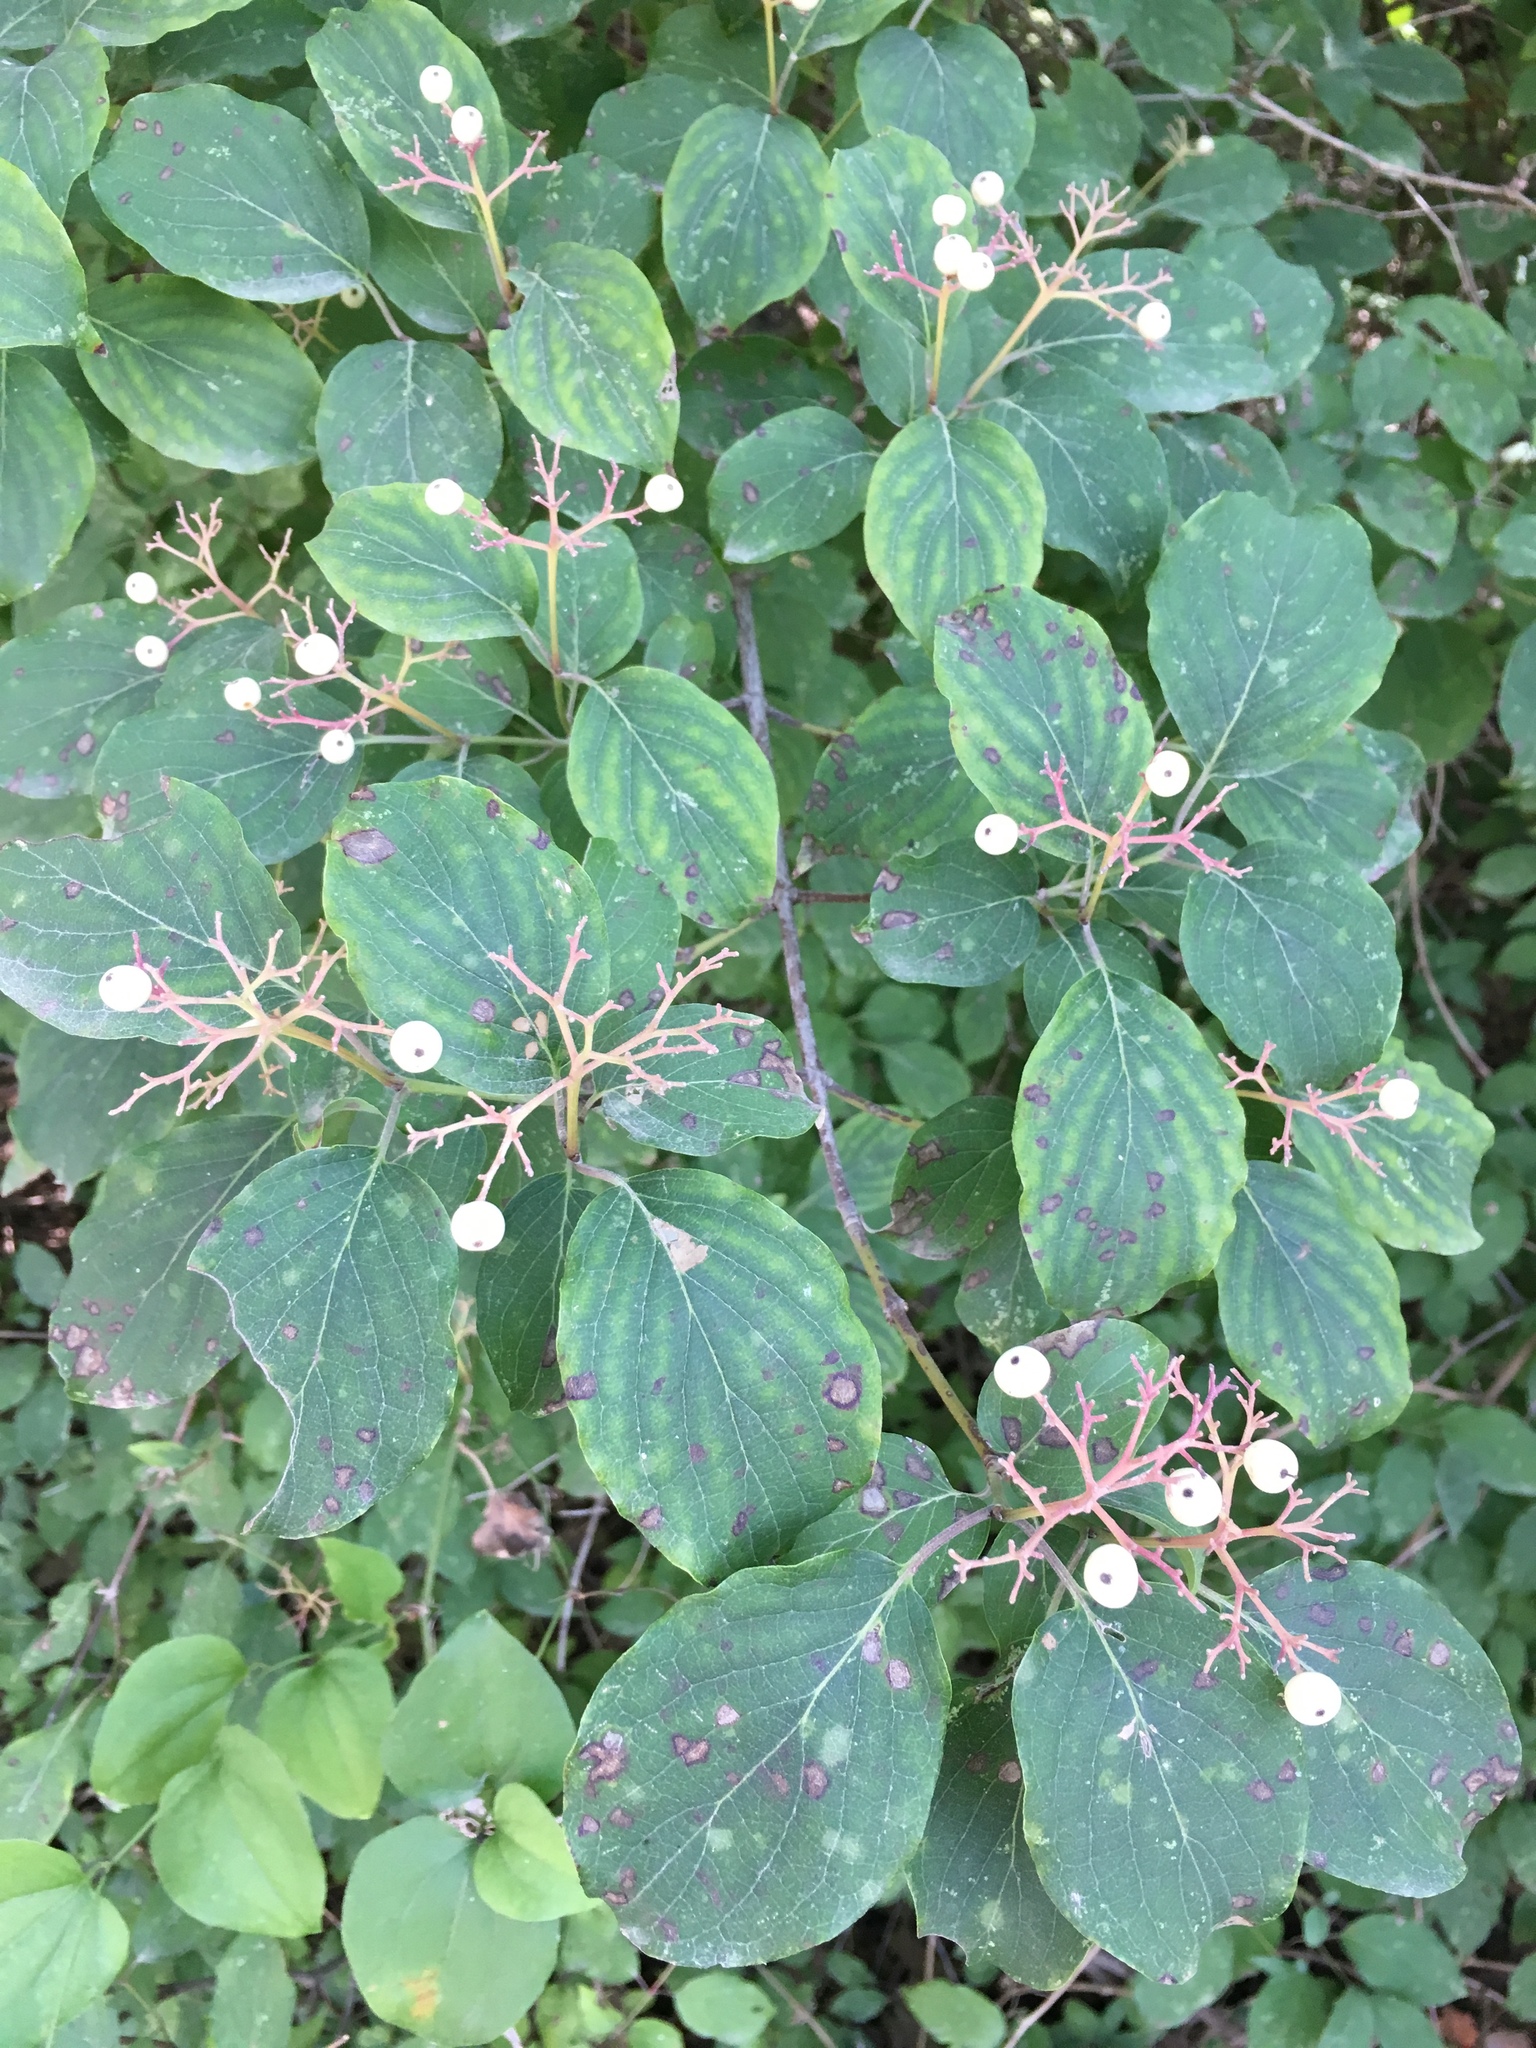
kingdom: Plantae
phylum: Tracheophyta
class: Magnoliopsida
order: Cornales
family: Cornaceae
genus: Cornus
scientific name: Cornus drummondii
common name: Rough-leaf dogwood
